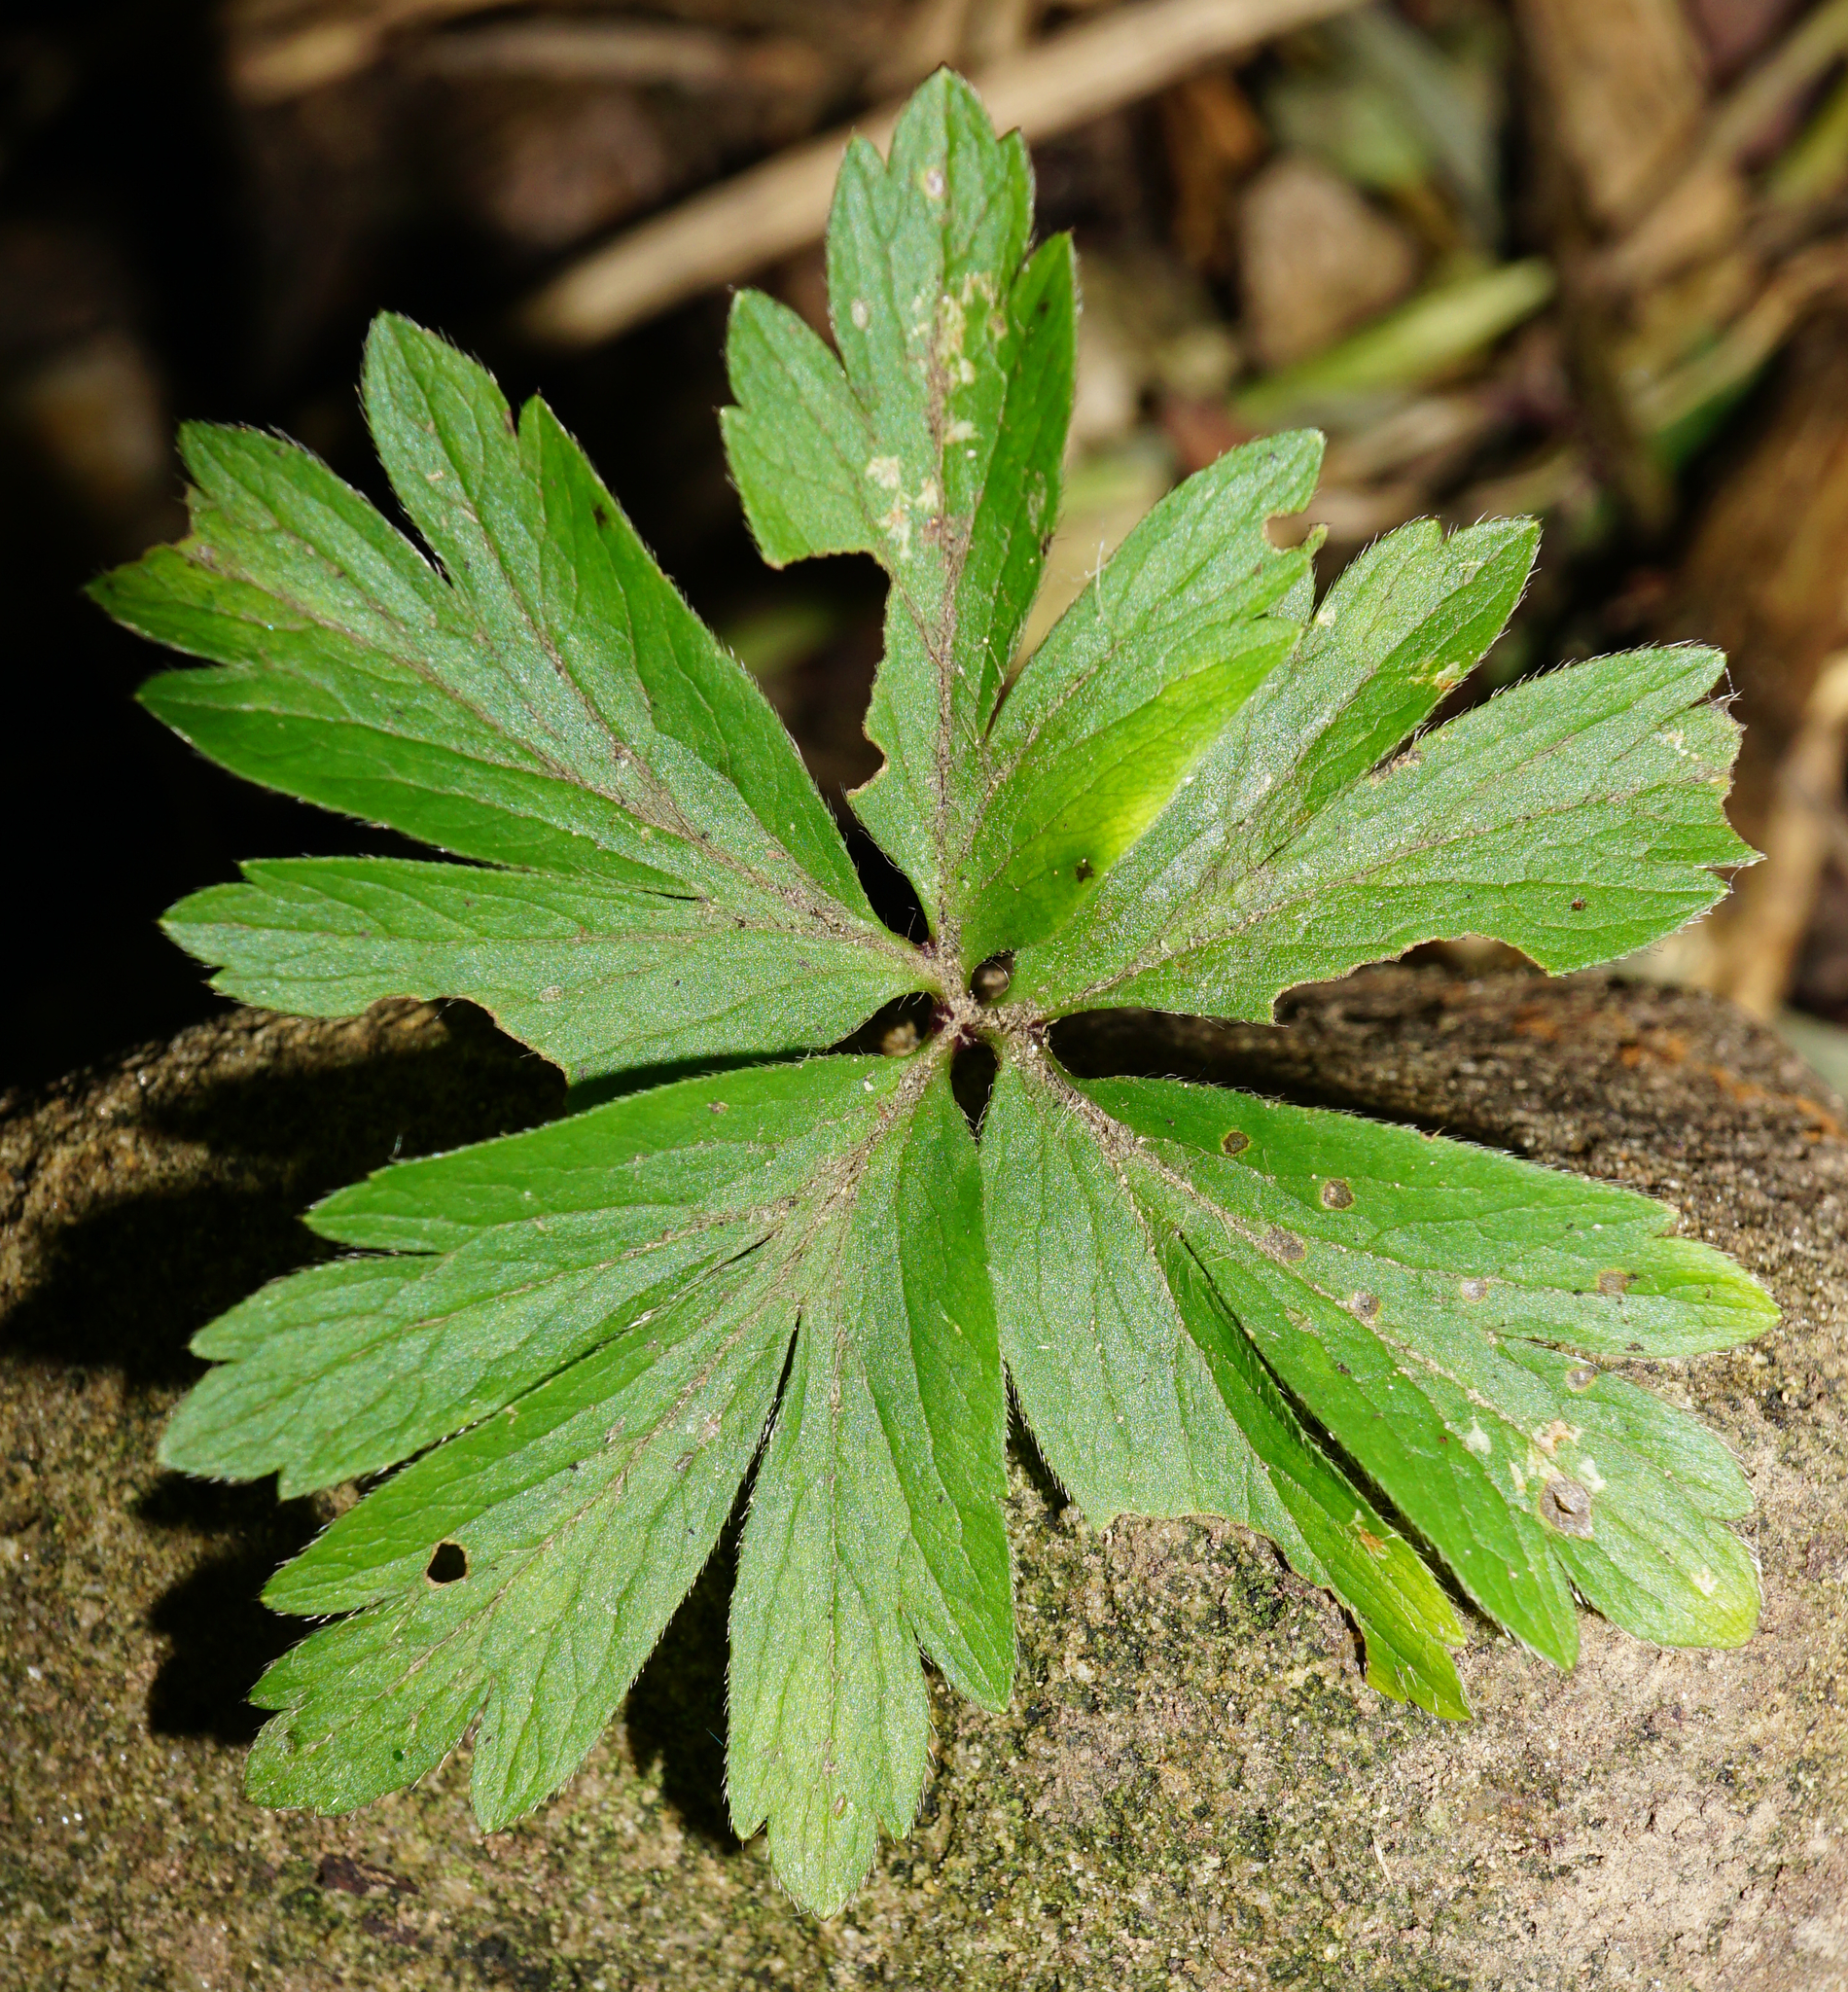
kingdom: Plantae
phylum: Tracheophyta
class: Magnoliopsida
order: Ranunculales
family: Ranunculaceae
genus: Anemone
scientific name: Anemone nemorosa
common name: Wood anemone
